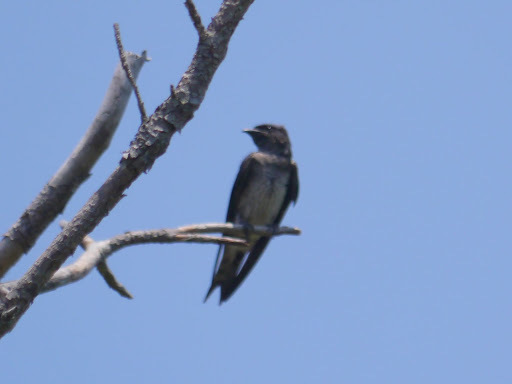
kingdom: Animalia
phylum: Chordata
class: Aves
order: Passeriformes
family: Hirundinidae
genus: Progne
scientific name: Progne subis
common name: Purple martin
